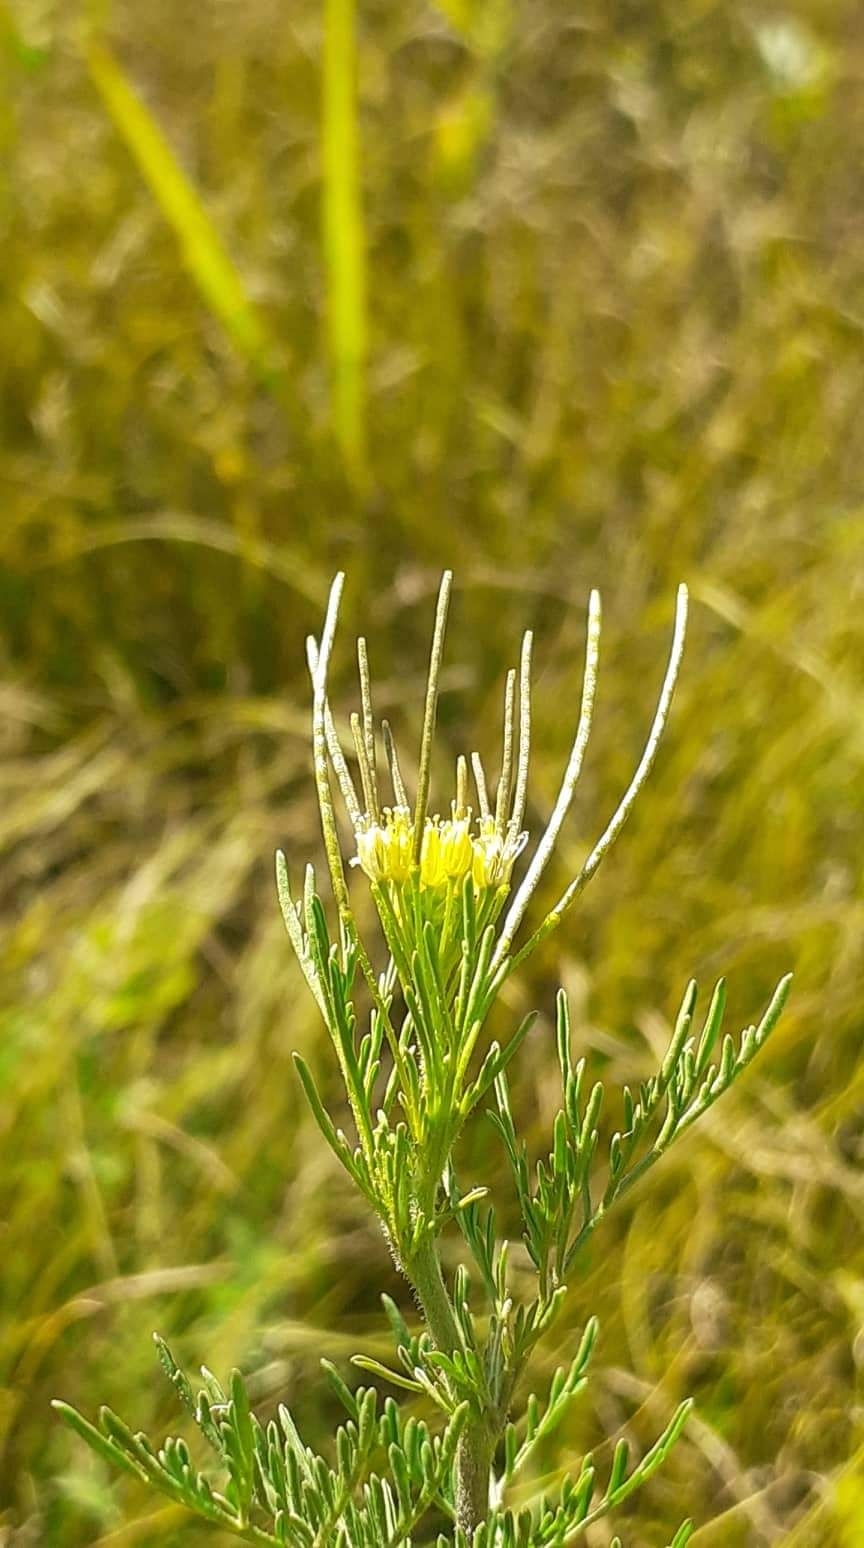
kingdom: Plantae
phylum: Tracheophyta
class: Magnoliopsida
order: Brassicales
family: Brassicaceae
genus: Descurainia
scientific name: Descurainia sophia
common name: Flixweed
